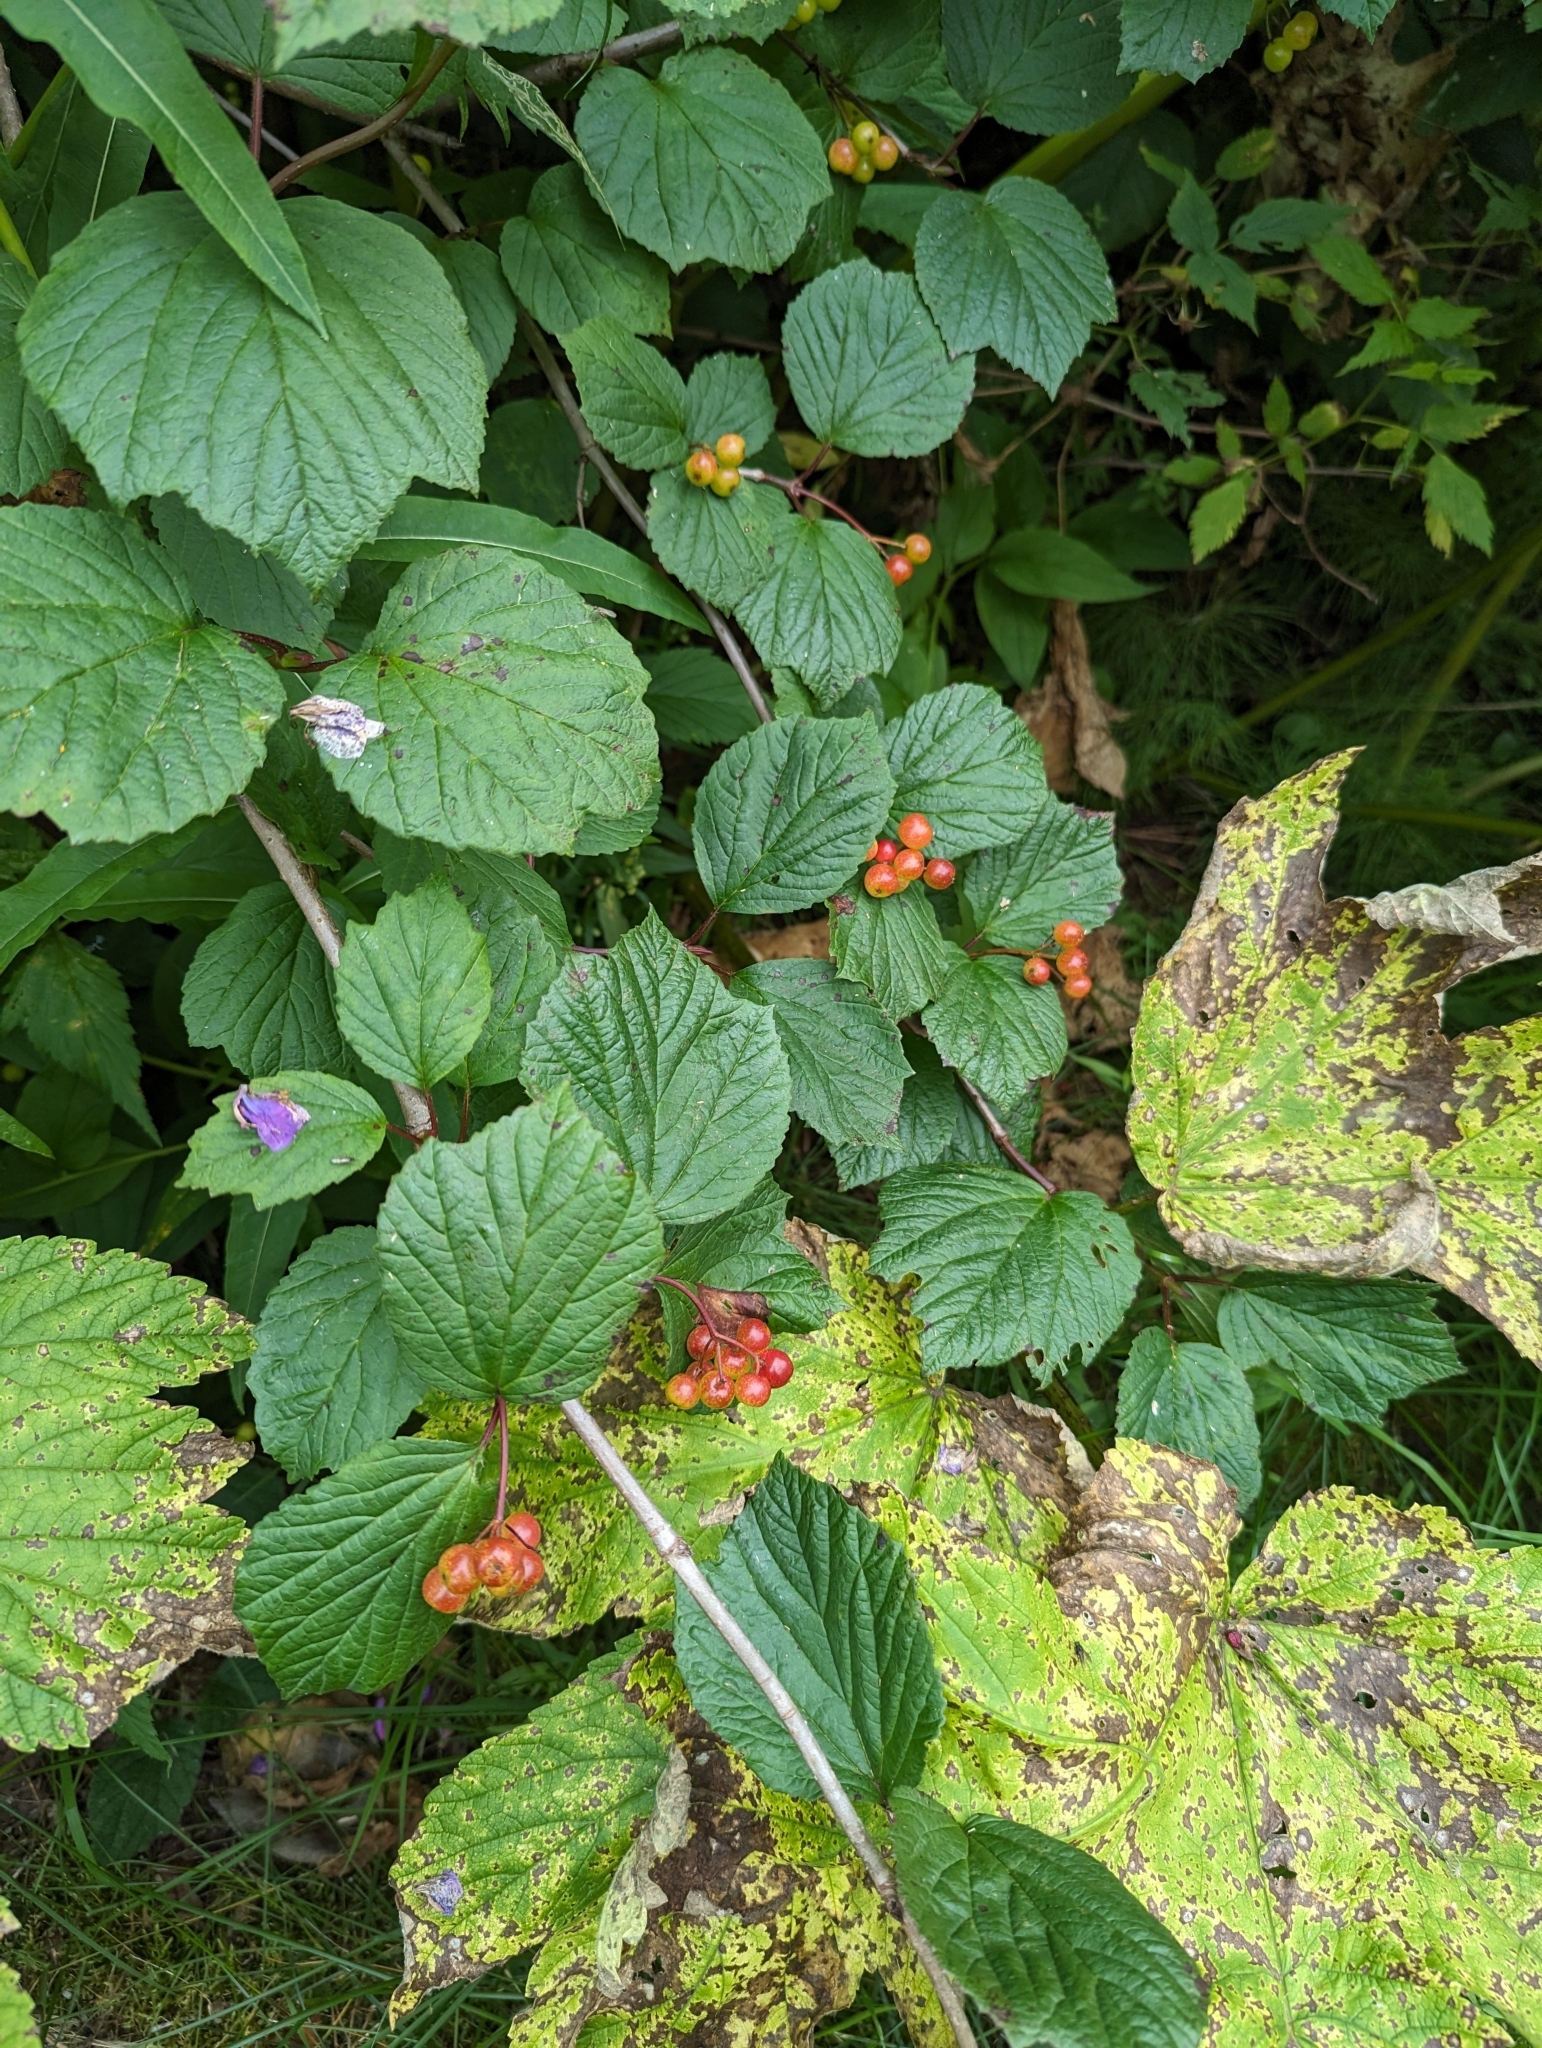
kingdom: Plantae
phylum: Tracheophyta
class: Magnoliopsida
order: Dipsacales
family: Viburnaceae
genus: Viburnum
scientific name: Viburnum edule
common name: Mooseberry
